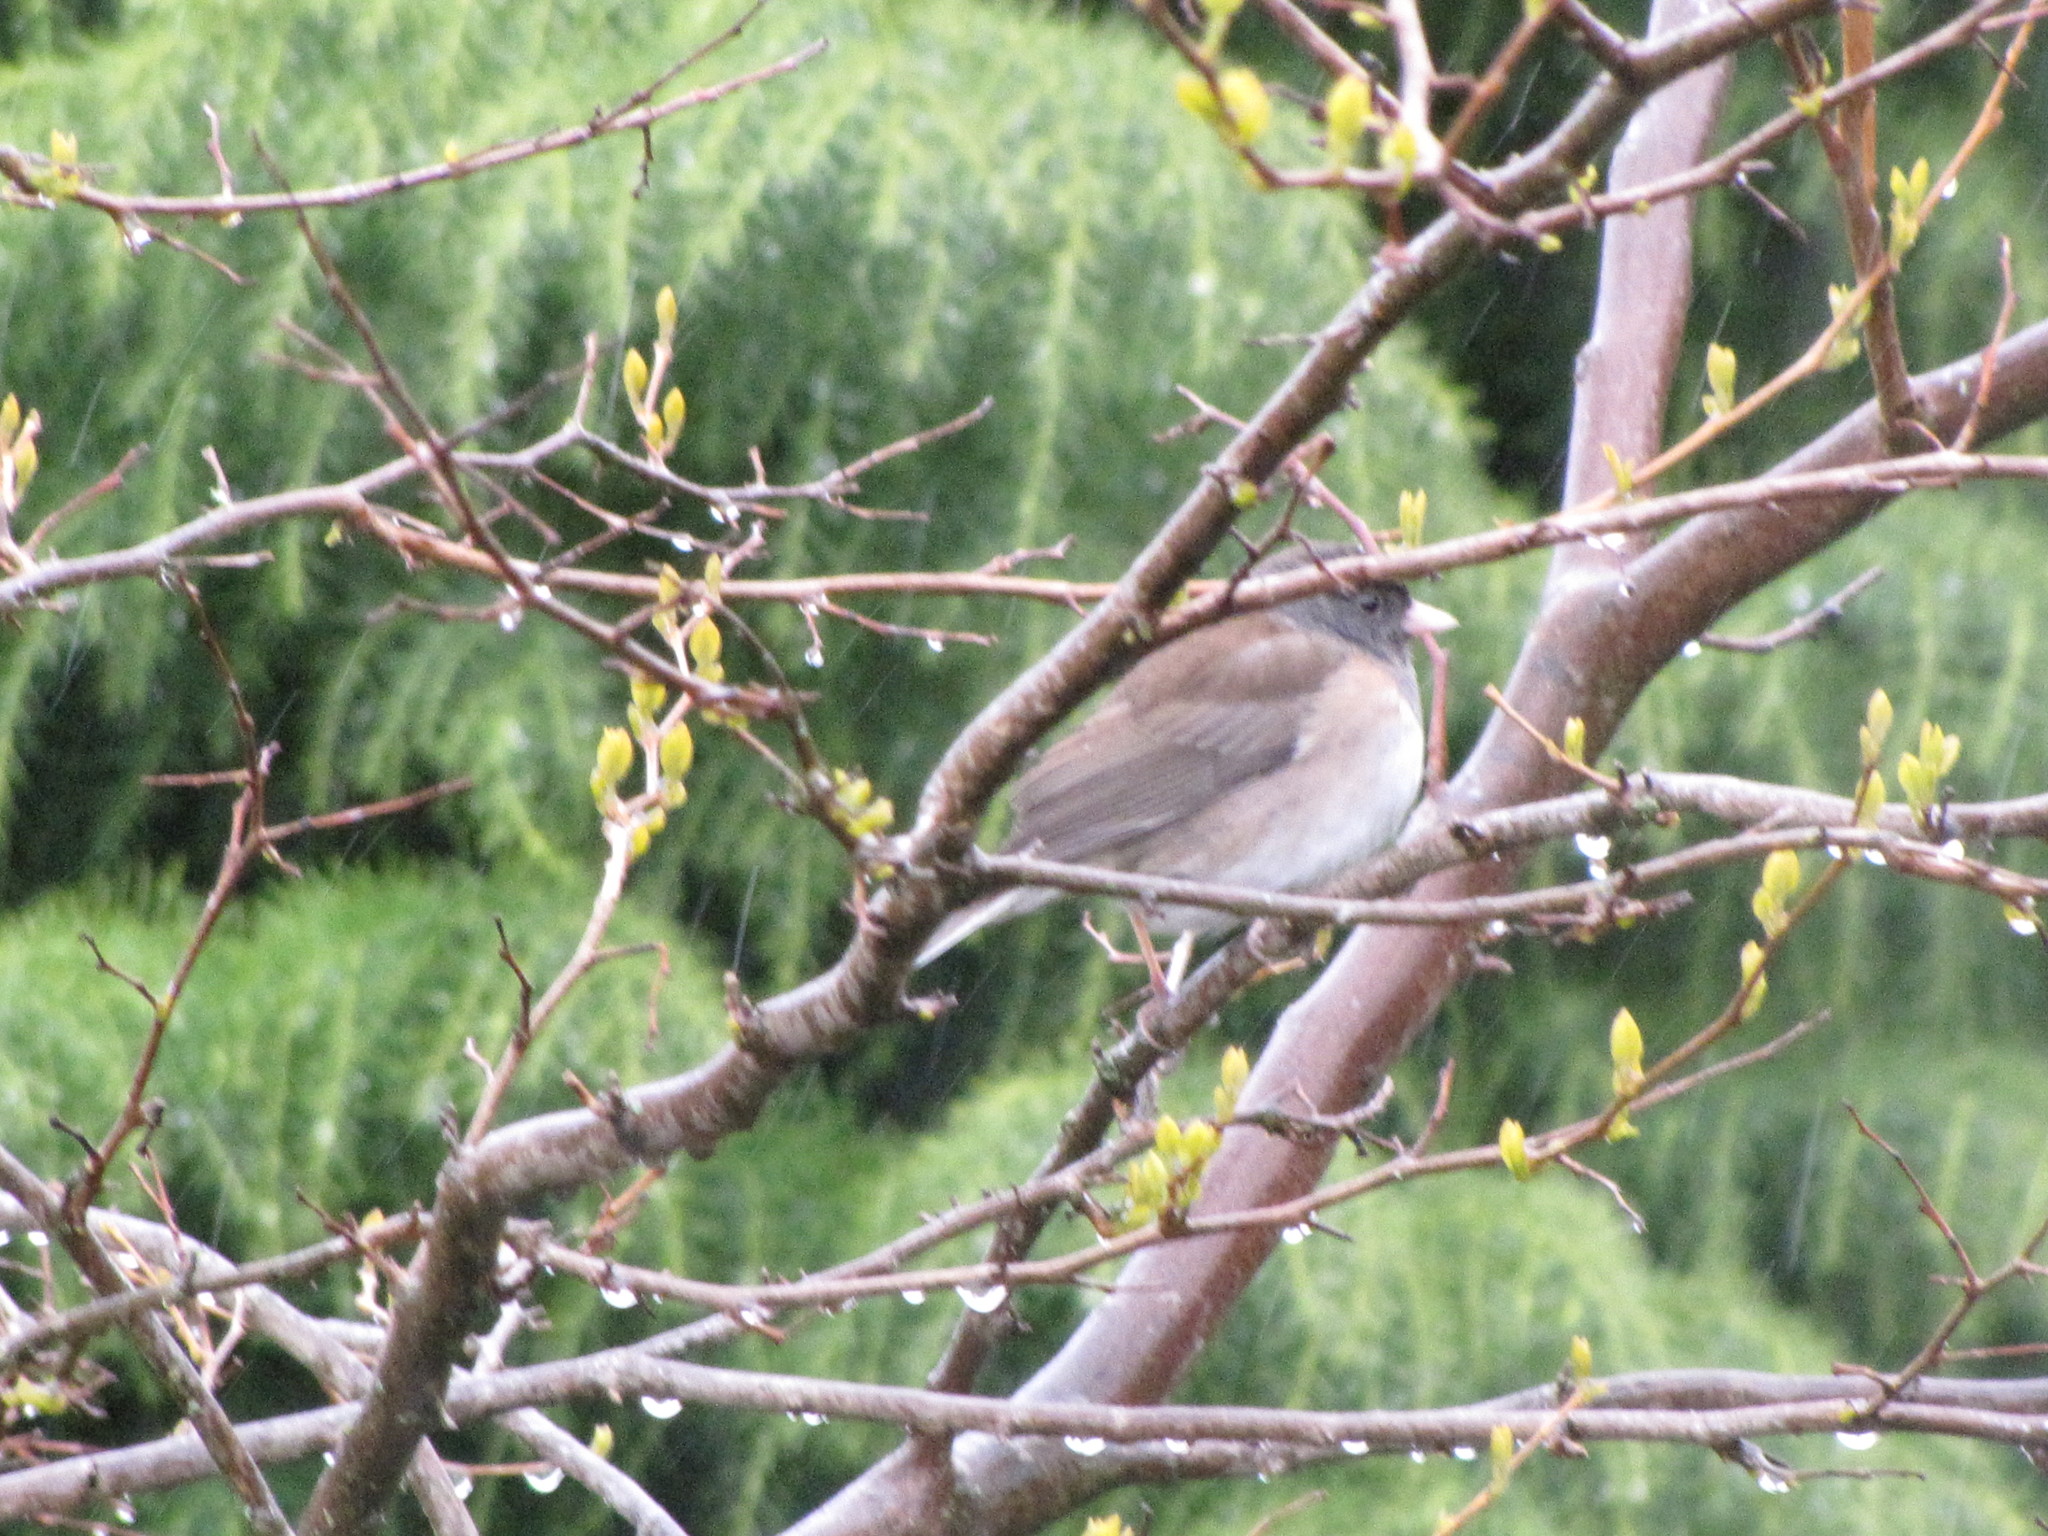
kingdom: Animalia
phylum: Chordata
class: Aves
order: Passeriformes
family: Passerellidae
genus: Junco
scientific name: Junco hyemalis
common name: Dark-eyed junco
